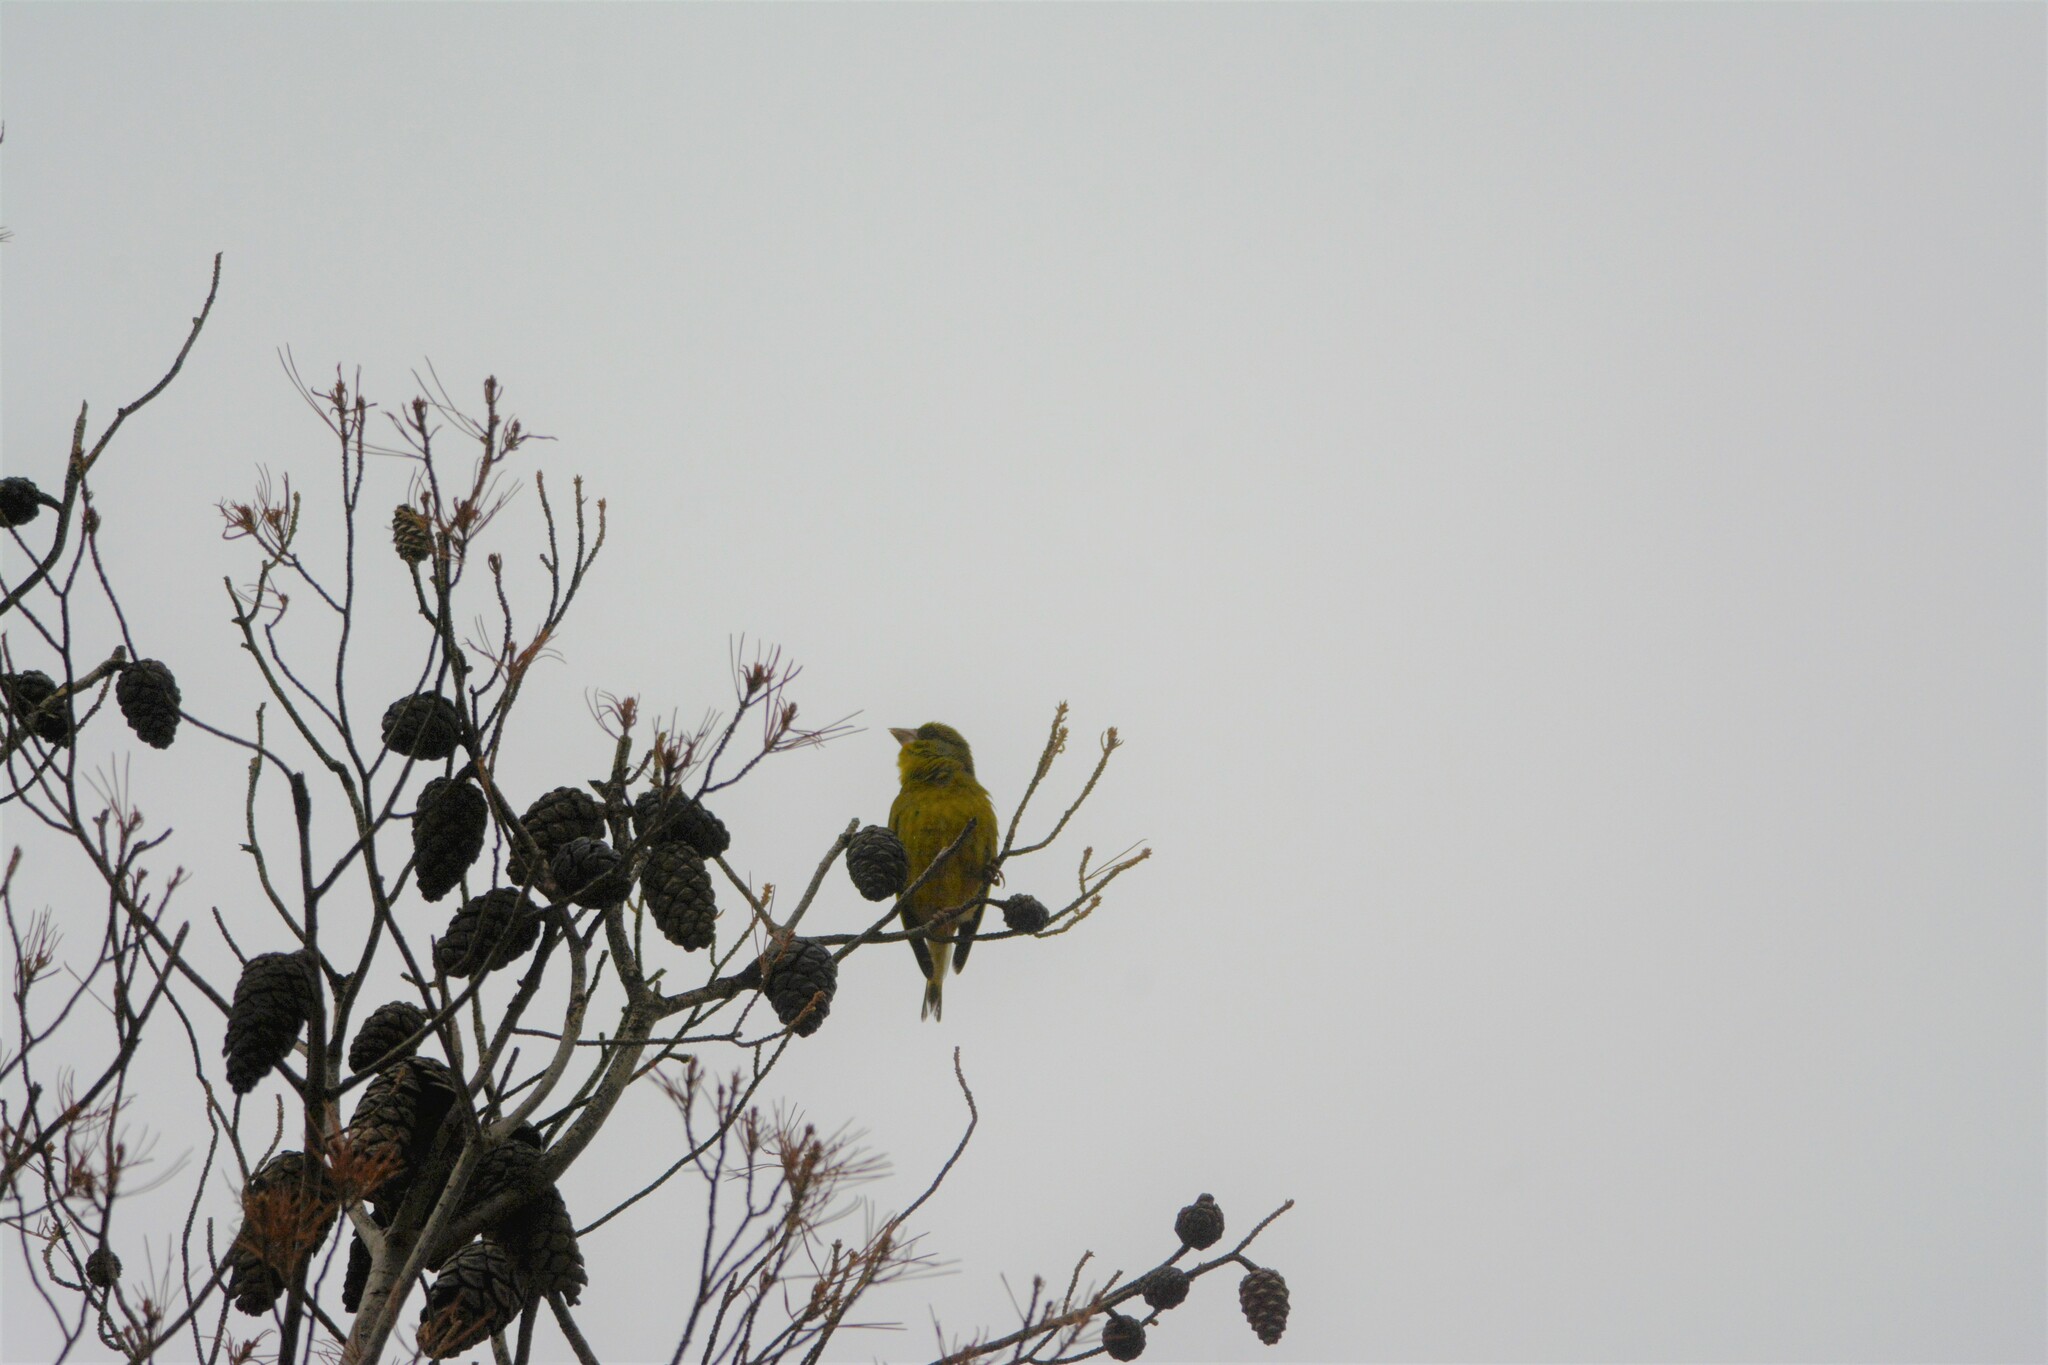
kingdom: Plantae
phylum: Tracheophyta
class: Liliopsida
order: Poales
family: Poaceae
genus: Chloris
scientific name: Chloris chloris
